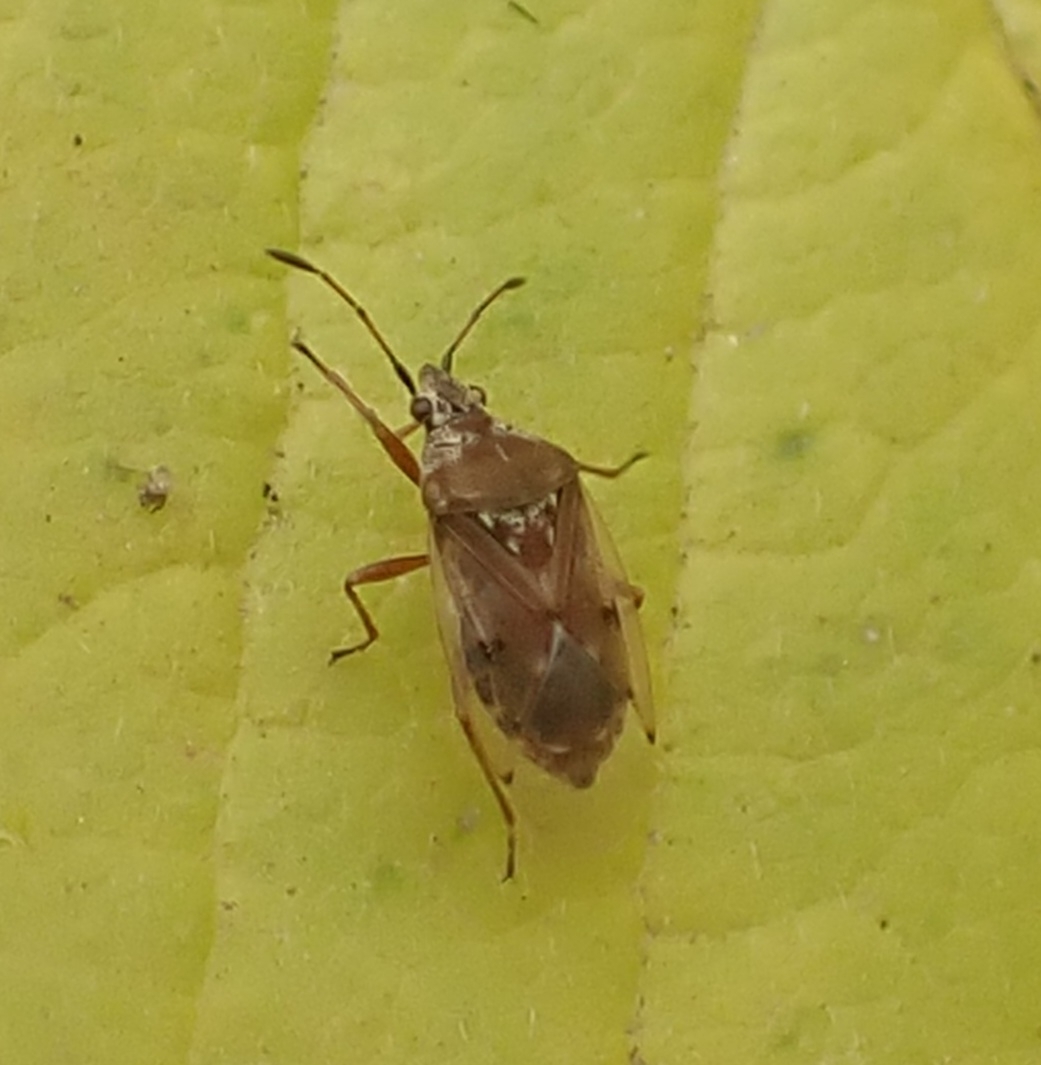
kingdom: Animalia
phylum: Arthropoda
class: Insecta
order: Hemiptera
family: Lygaeidae
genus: Kleidocerys
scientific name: Kleidocerys resedae
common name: Birch catkin bug
